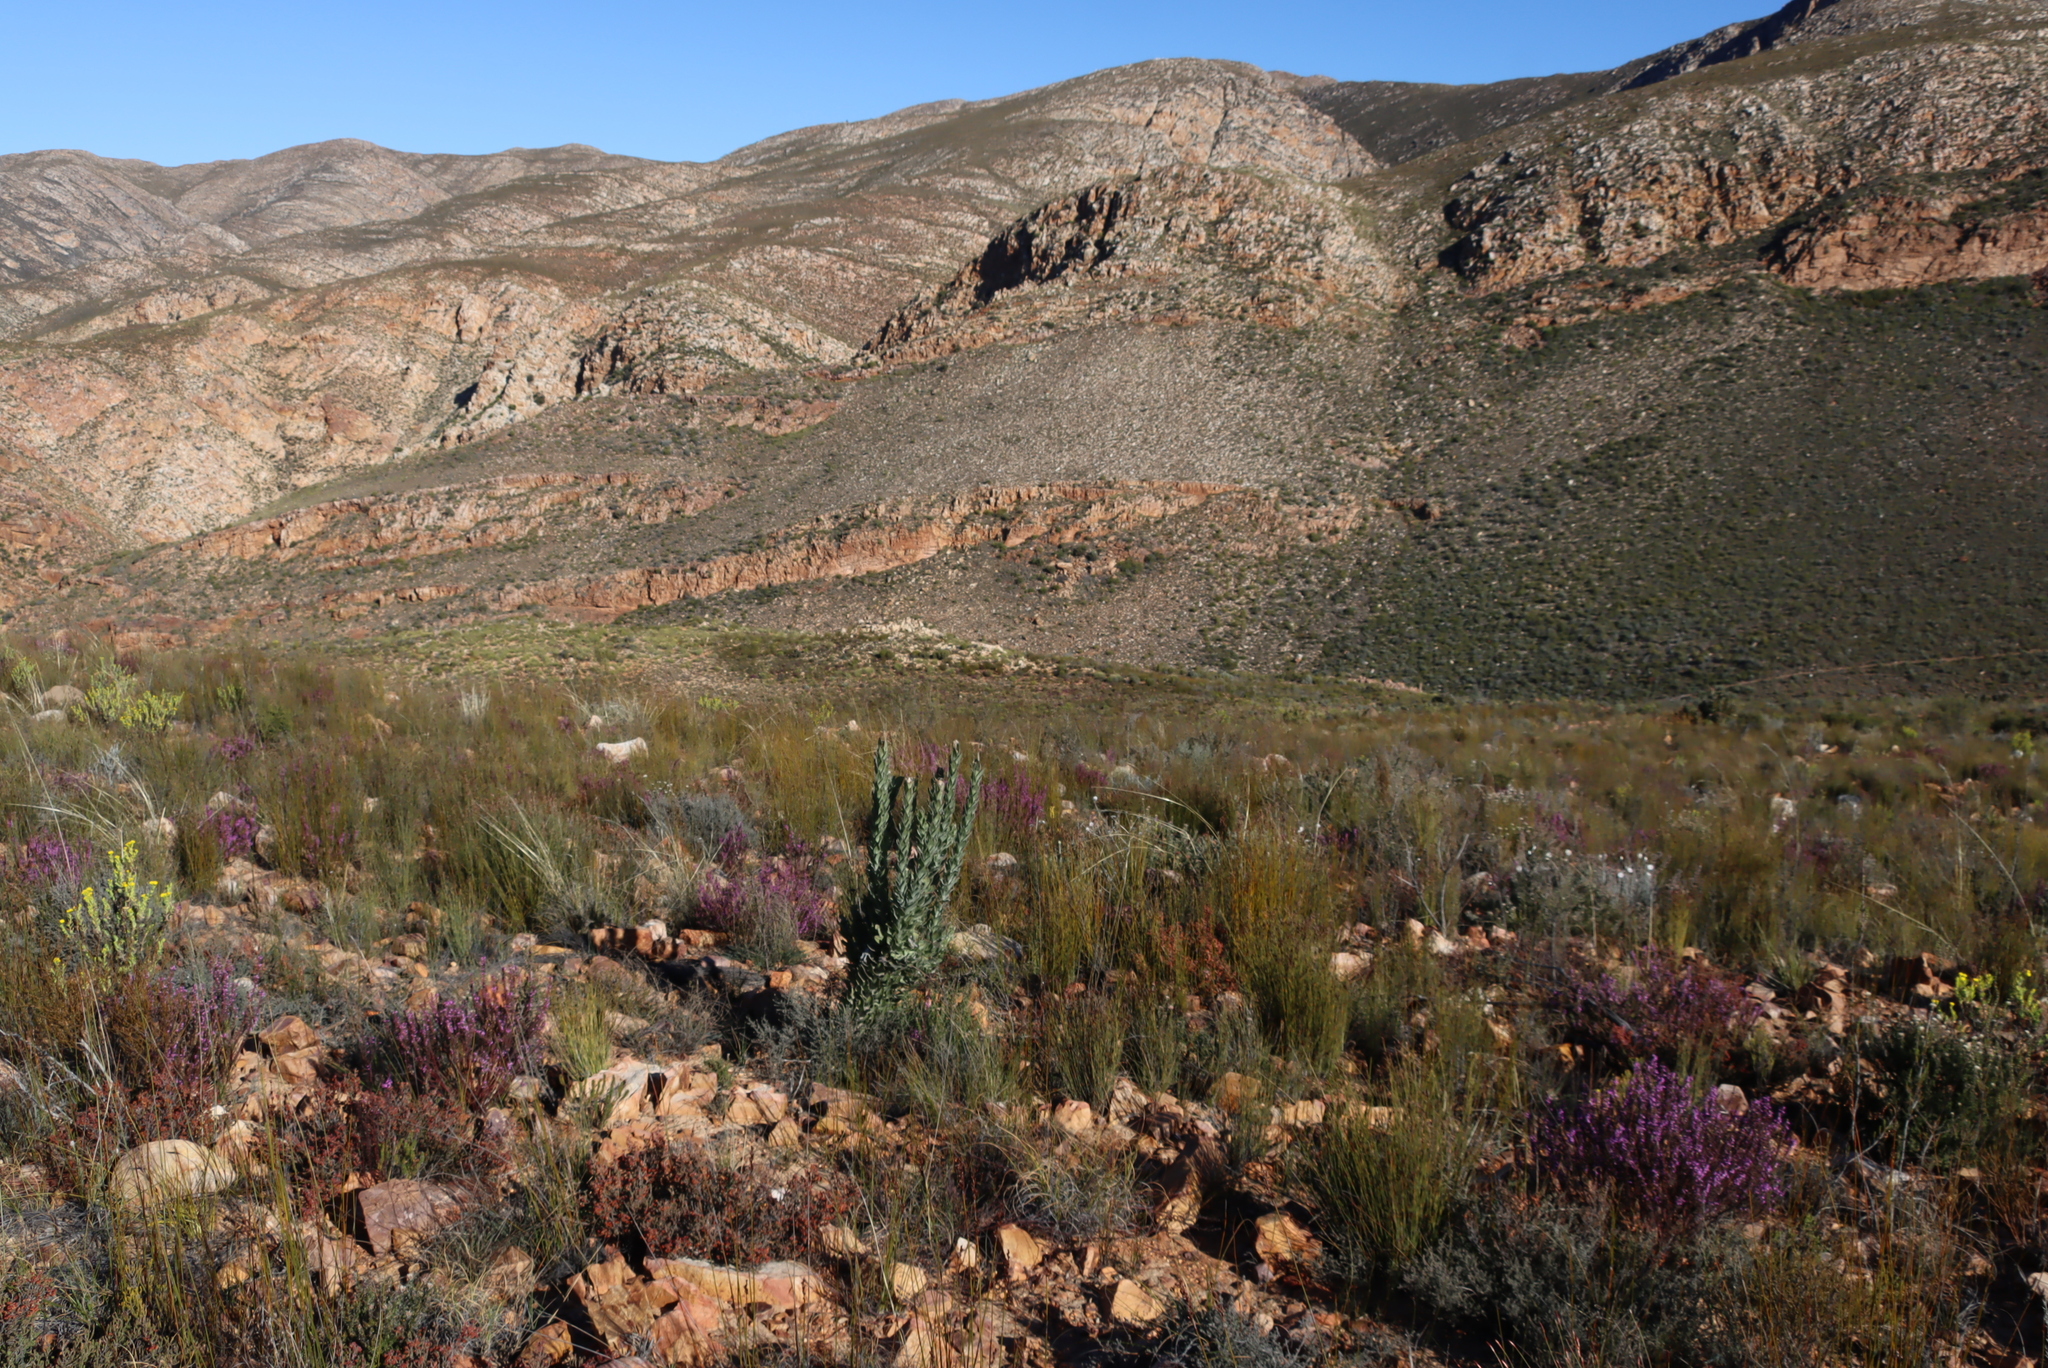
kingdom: Plantae
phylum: Tracheophyta
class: Magnoliopsida
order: Fabales
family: Polygalaceae
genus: Muraltia
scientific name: Muraltia juniperifolia
